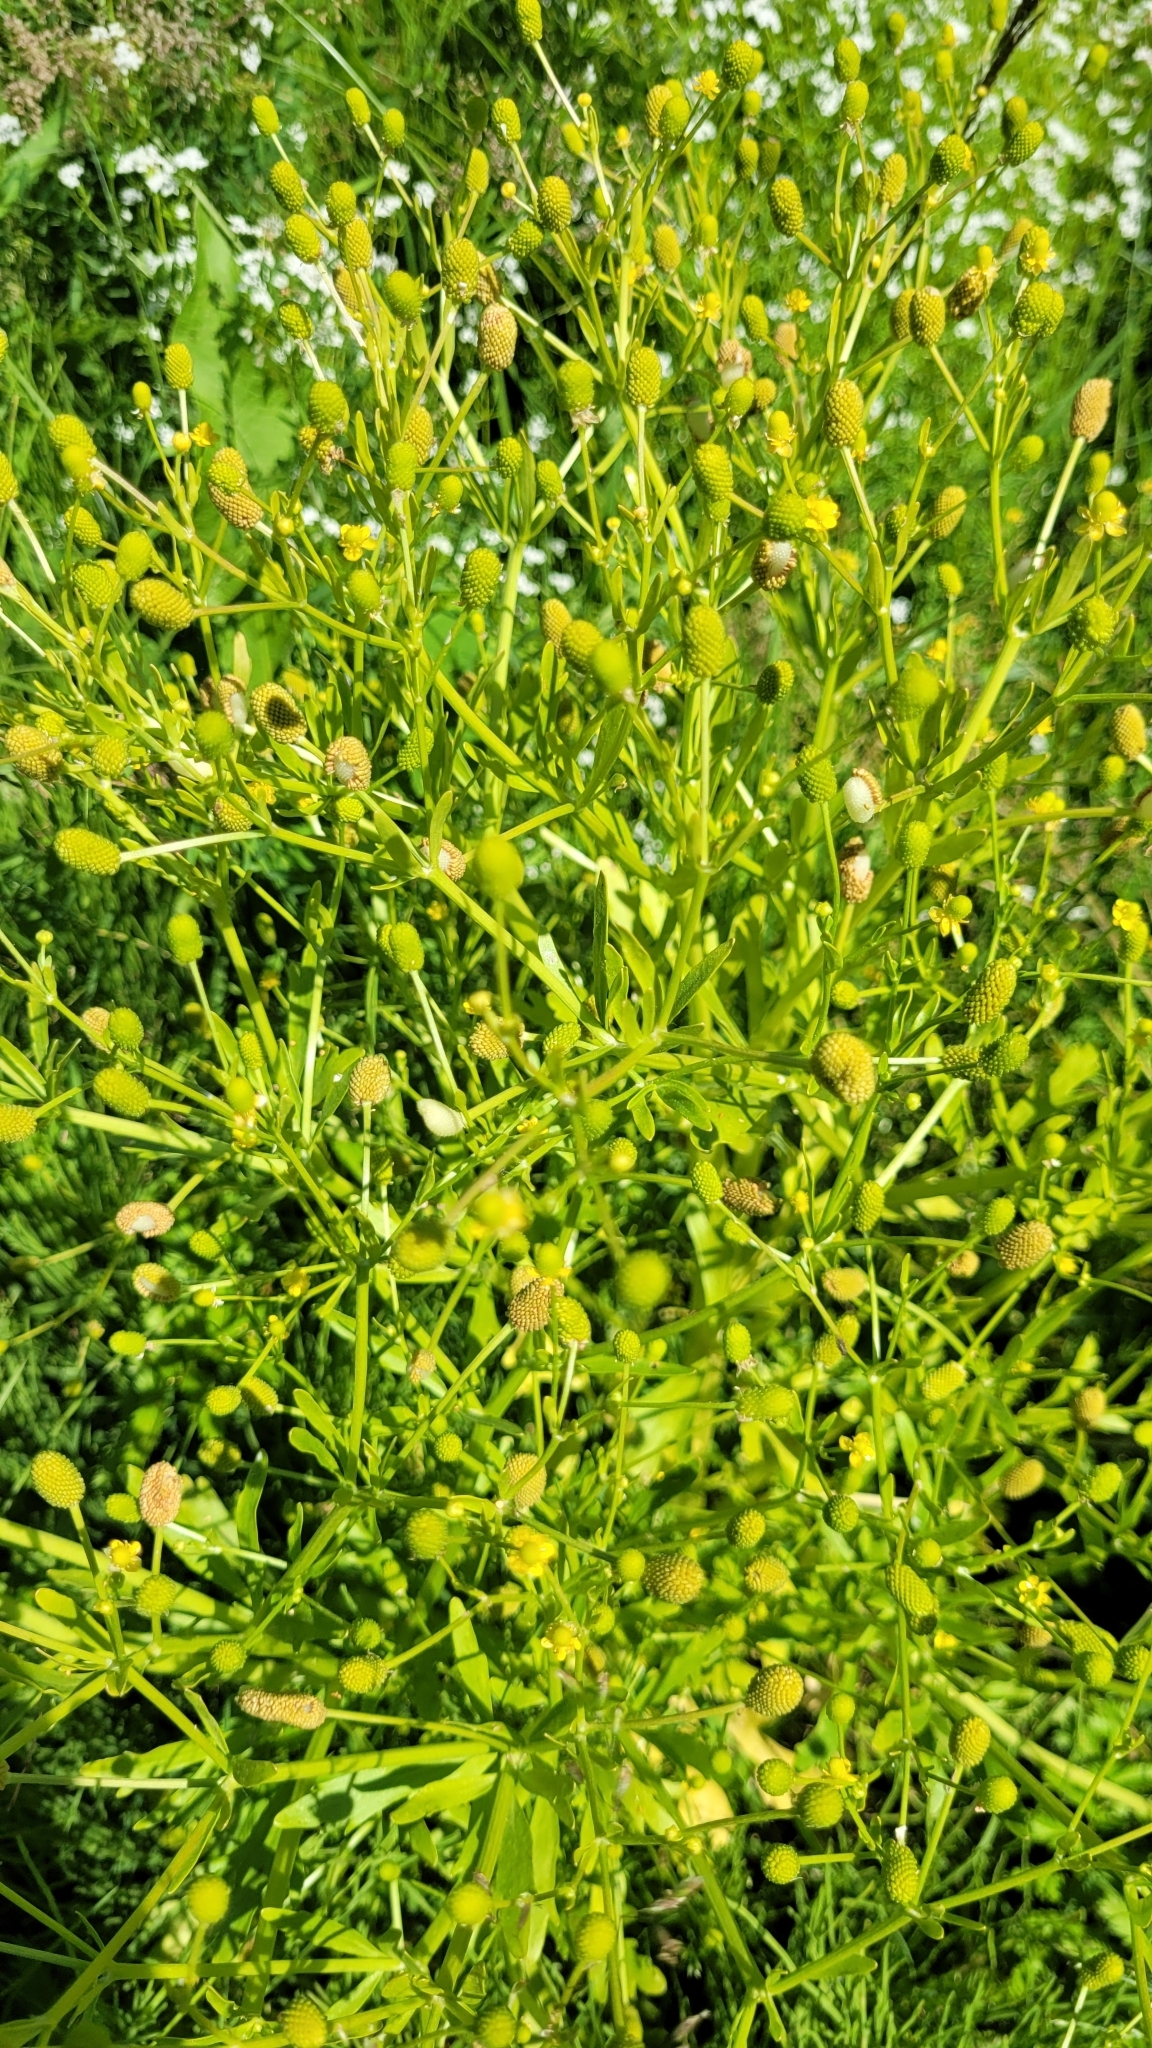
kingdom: Plantae
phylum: Tracheophyta
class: Magnoliopsida
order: Ranunculales
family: Ranunculaceae
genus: Ranunculus
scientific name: Ranunculus sceleratus
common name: Celery-leaved buttercup
